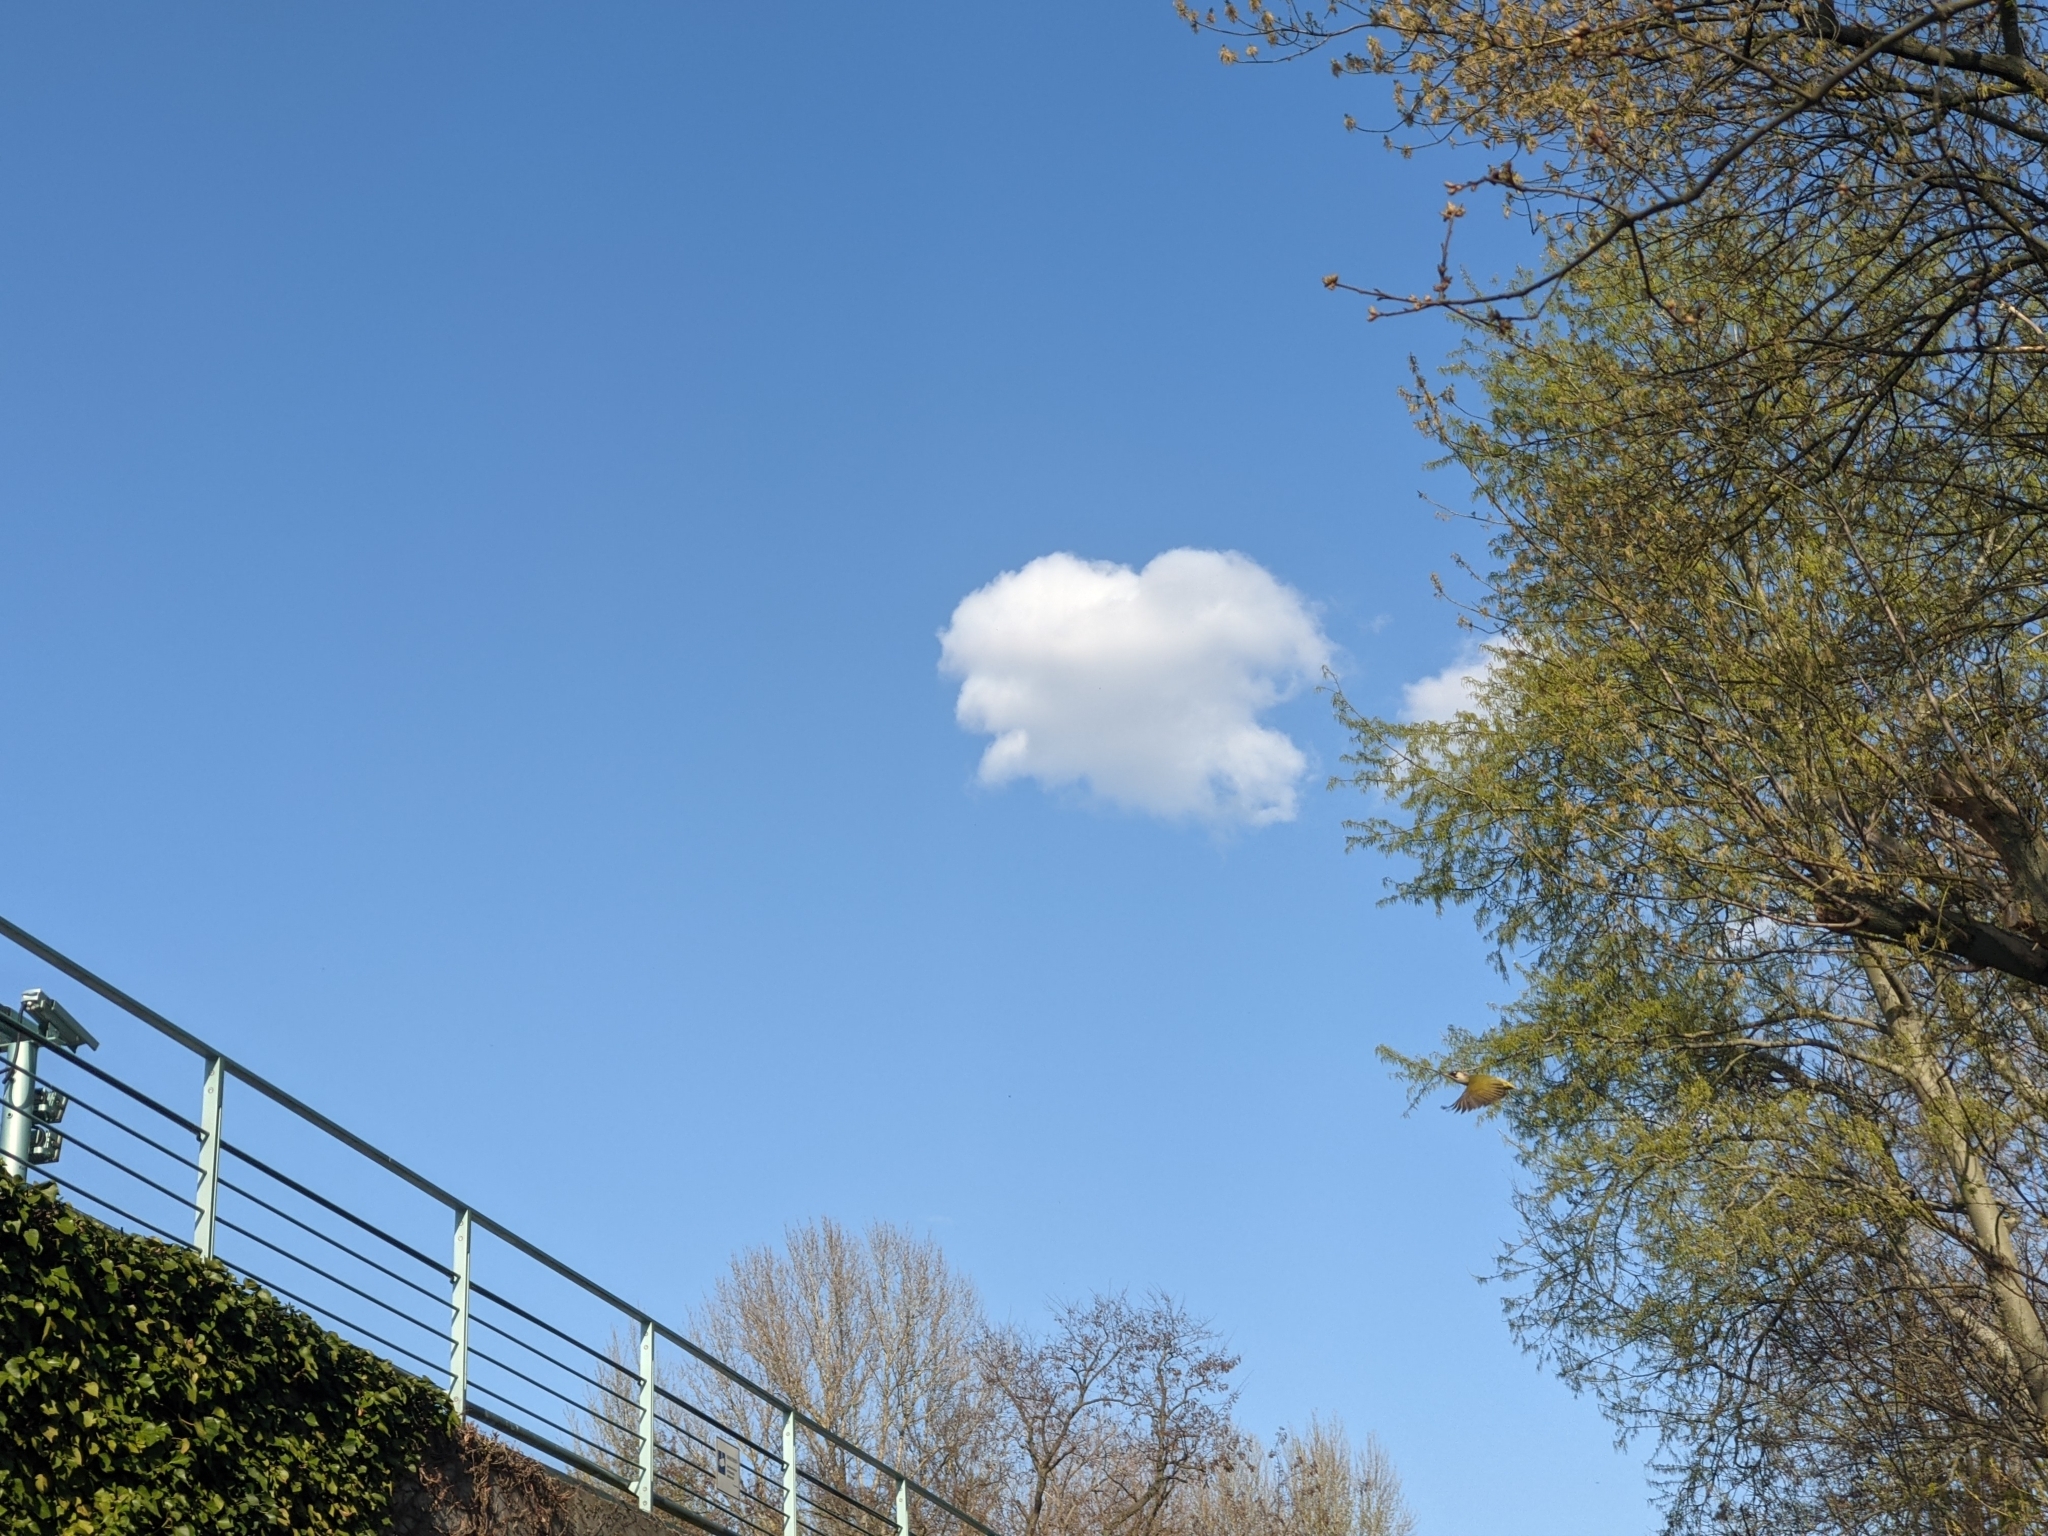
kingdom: Animalia
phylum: Chordata
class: Aves
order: Piciformes
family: Picidae
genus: Picus
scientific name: Picus viridis
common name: European green woodpecker
